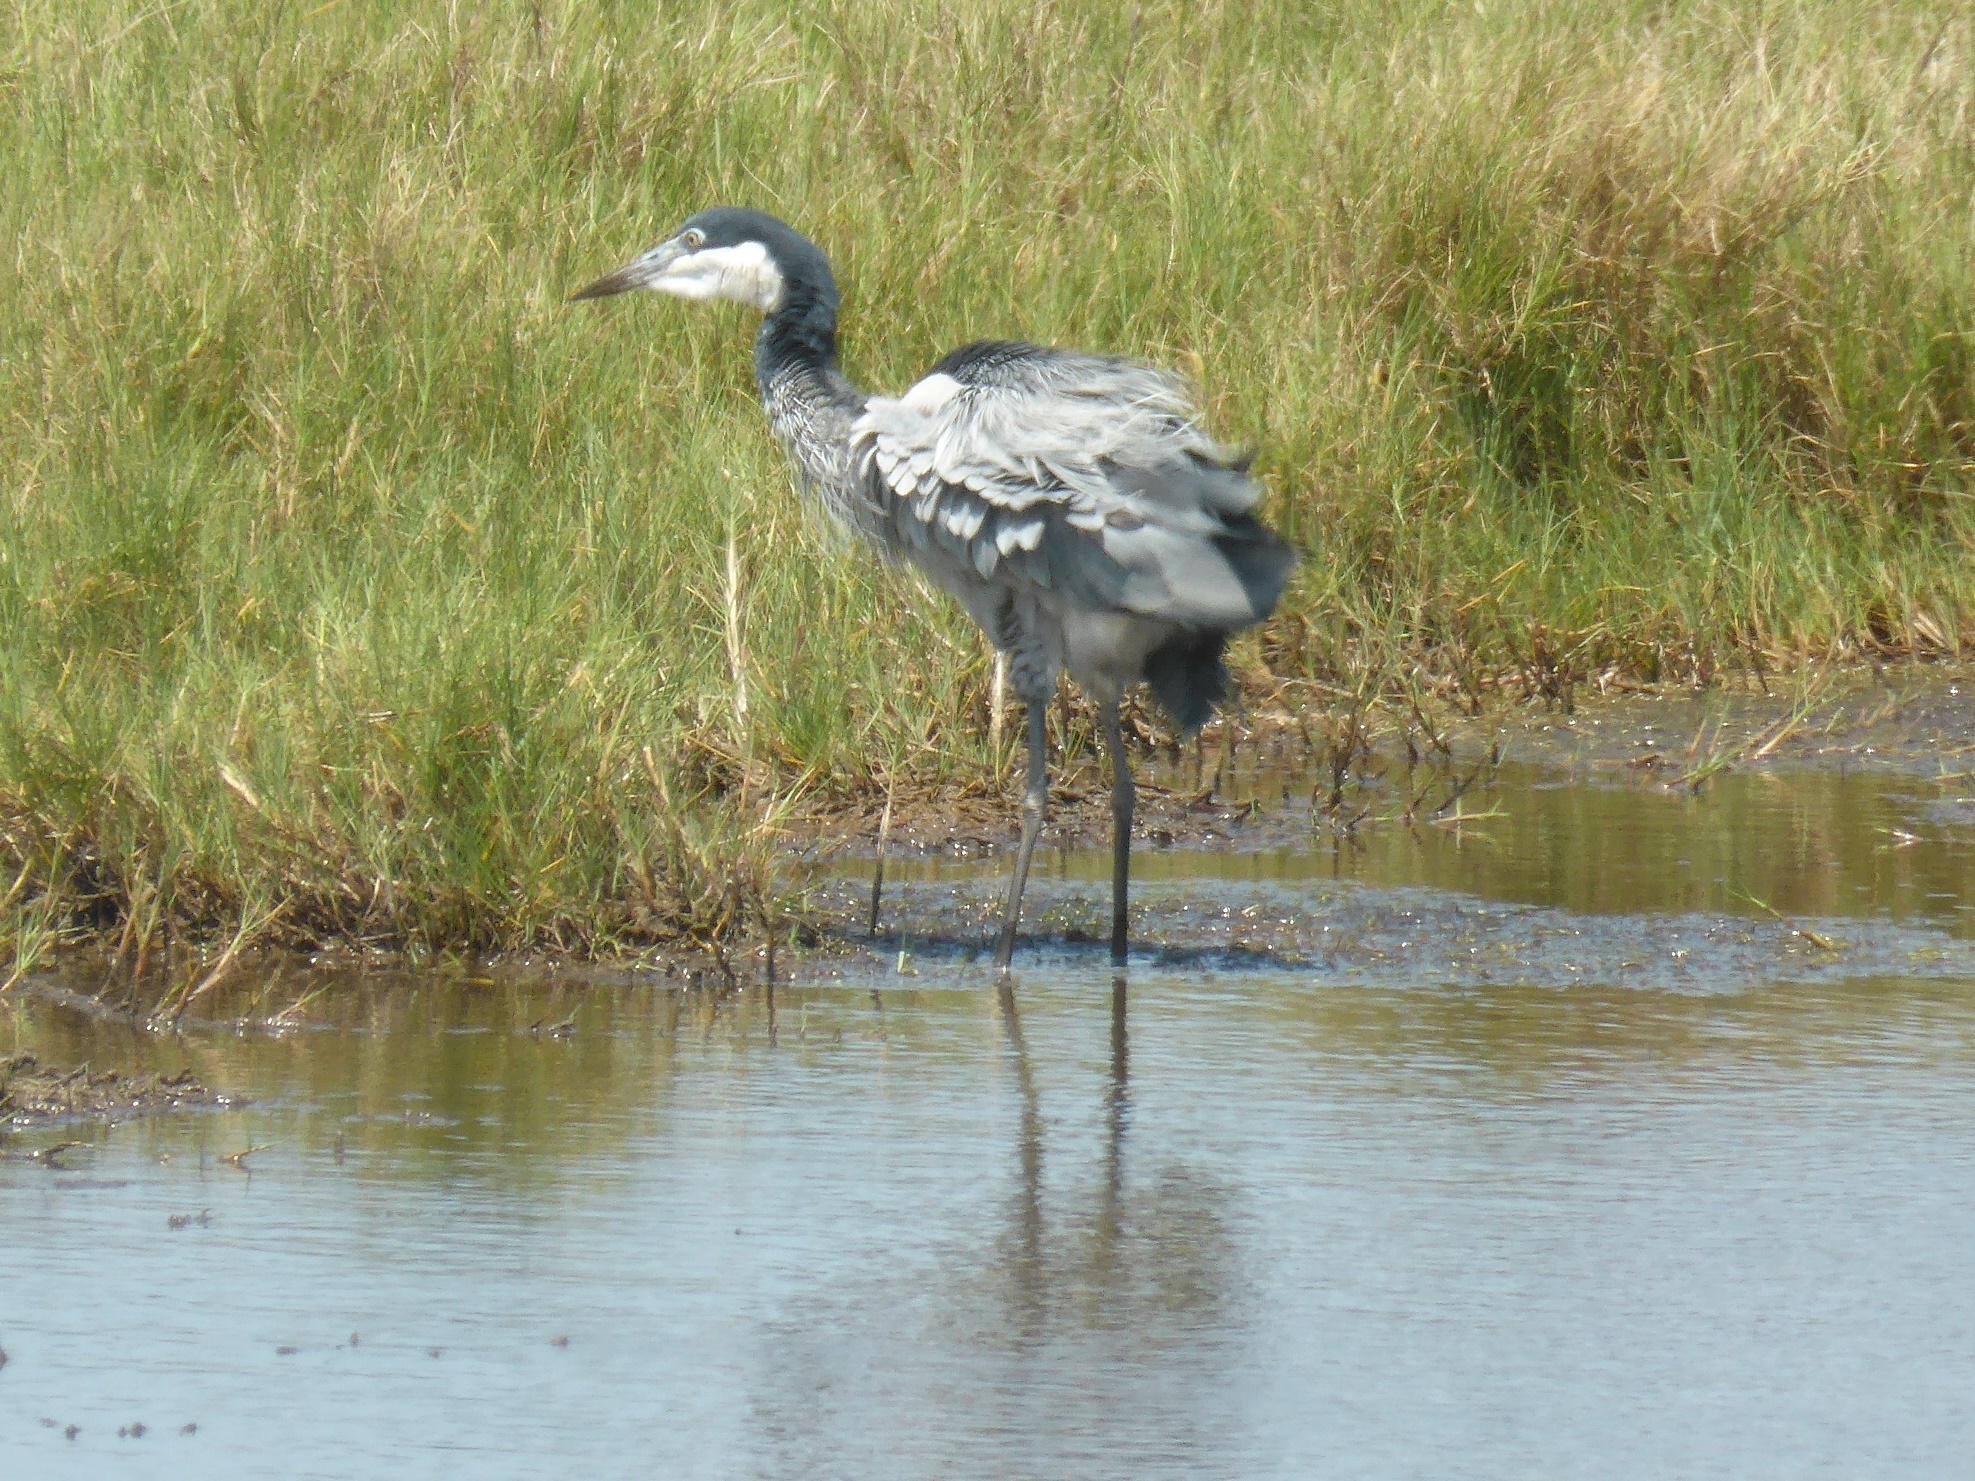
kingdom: Animalia
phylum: Chordata
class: Aves
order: Pelecaniformes
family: Ardeidae
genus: Ardea
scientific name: Ardea melanocephala
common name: Black-headed heron
